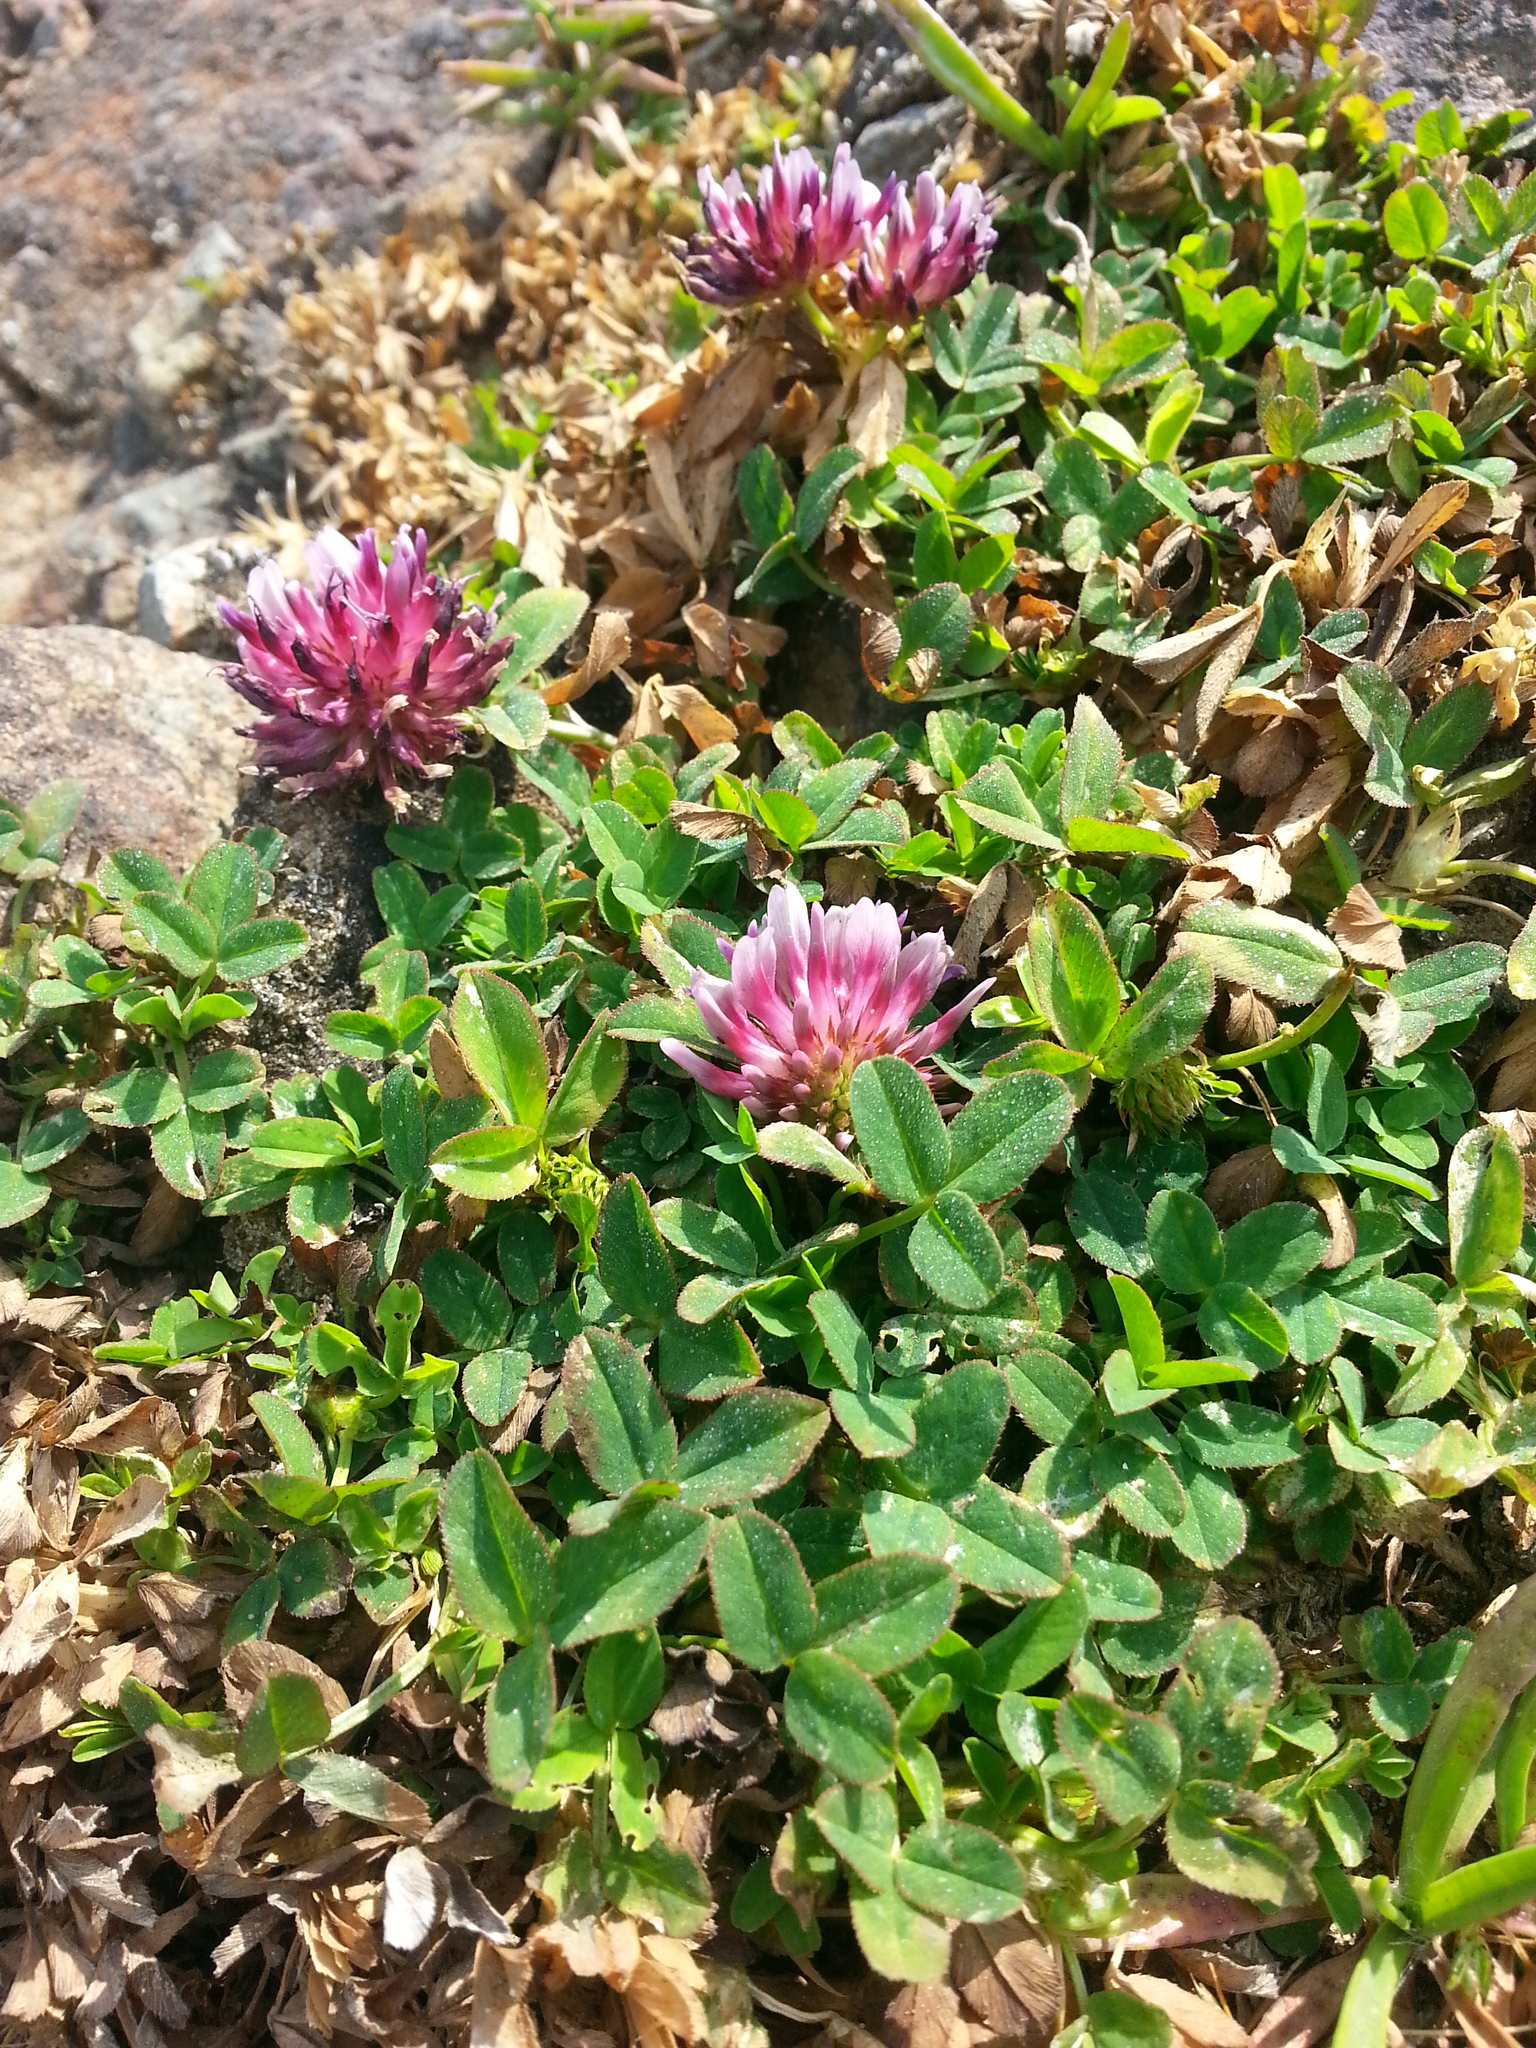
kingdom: Plantae
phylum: Tracheophyta
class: Magnoliopsida
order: Fabales
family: Fabaceae
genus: Trifolium
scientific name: Trifolium wormskioldii
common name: Springbank clover
